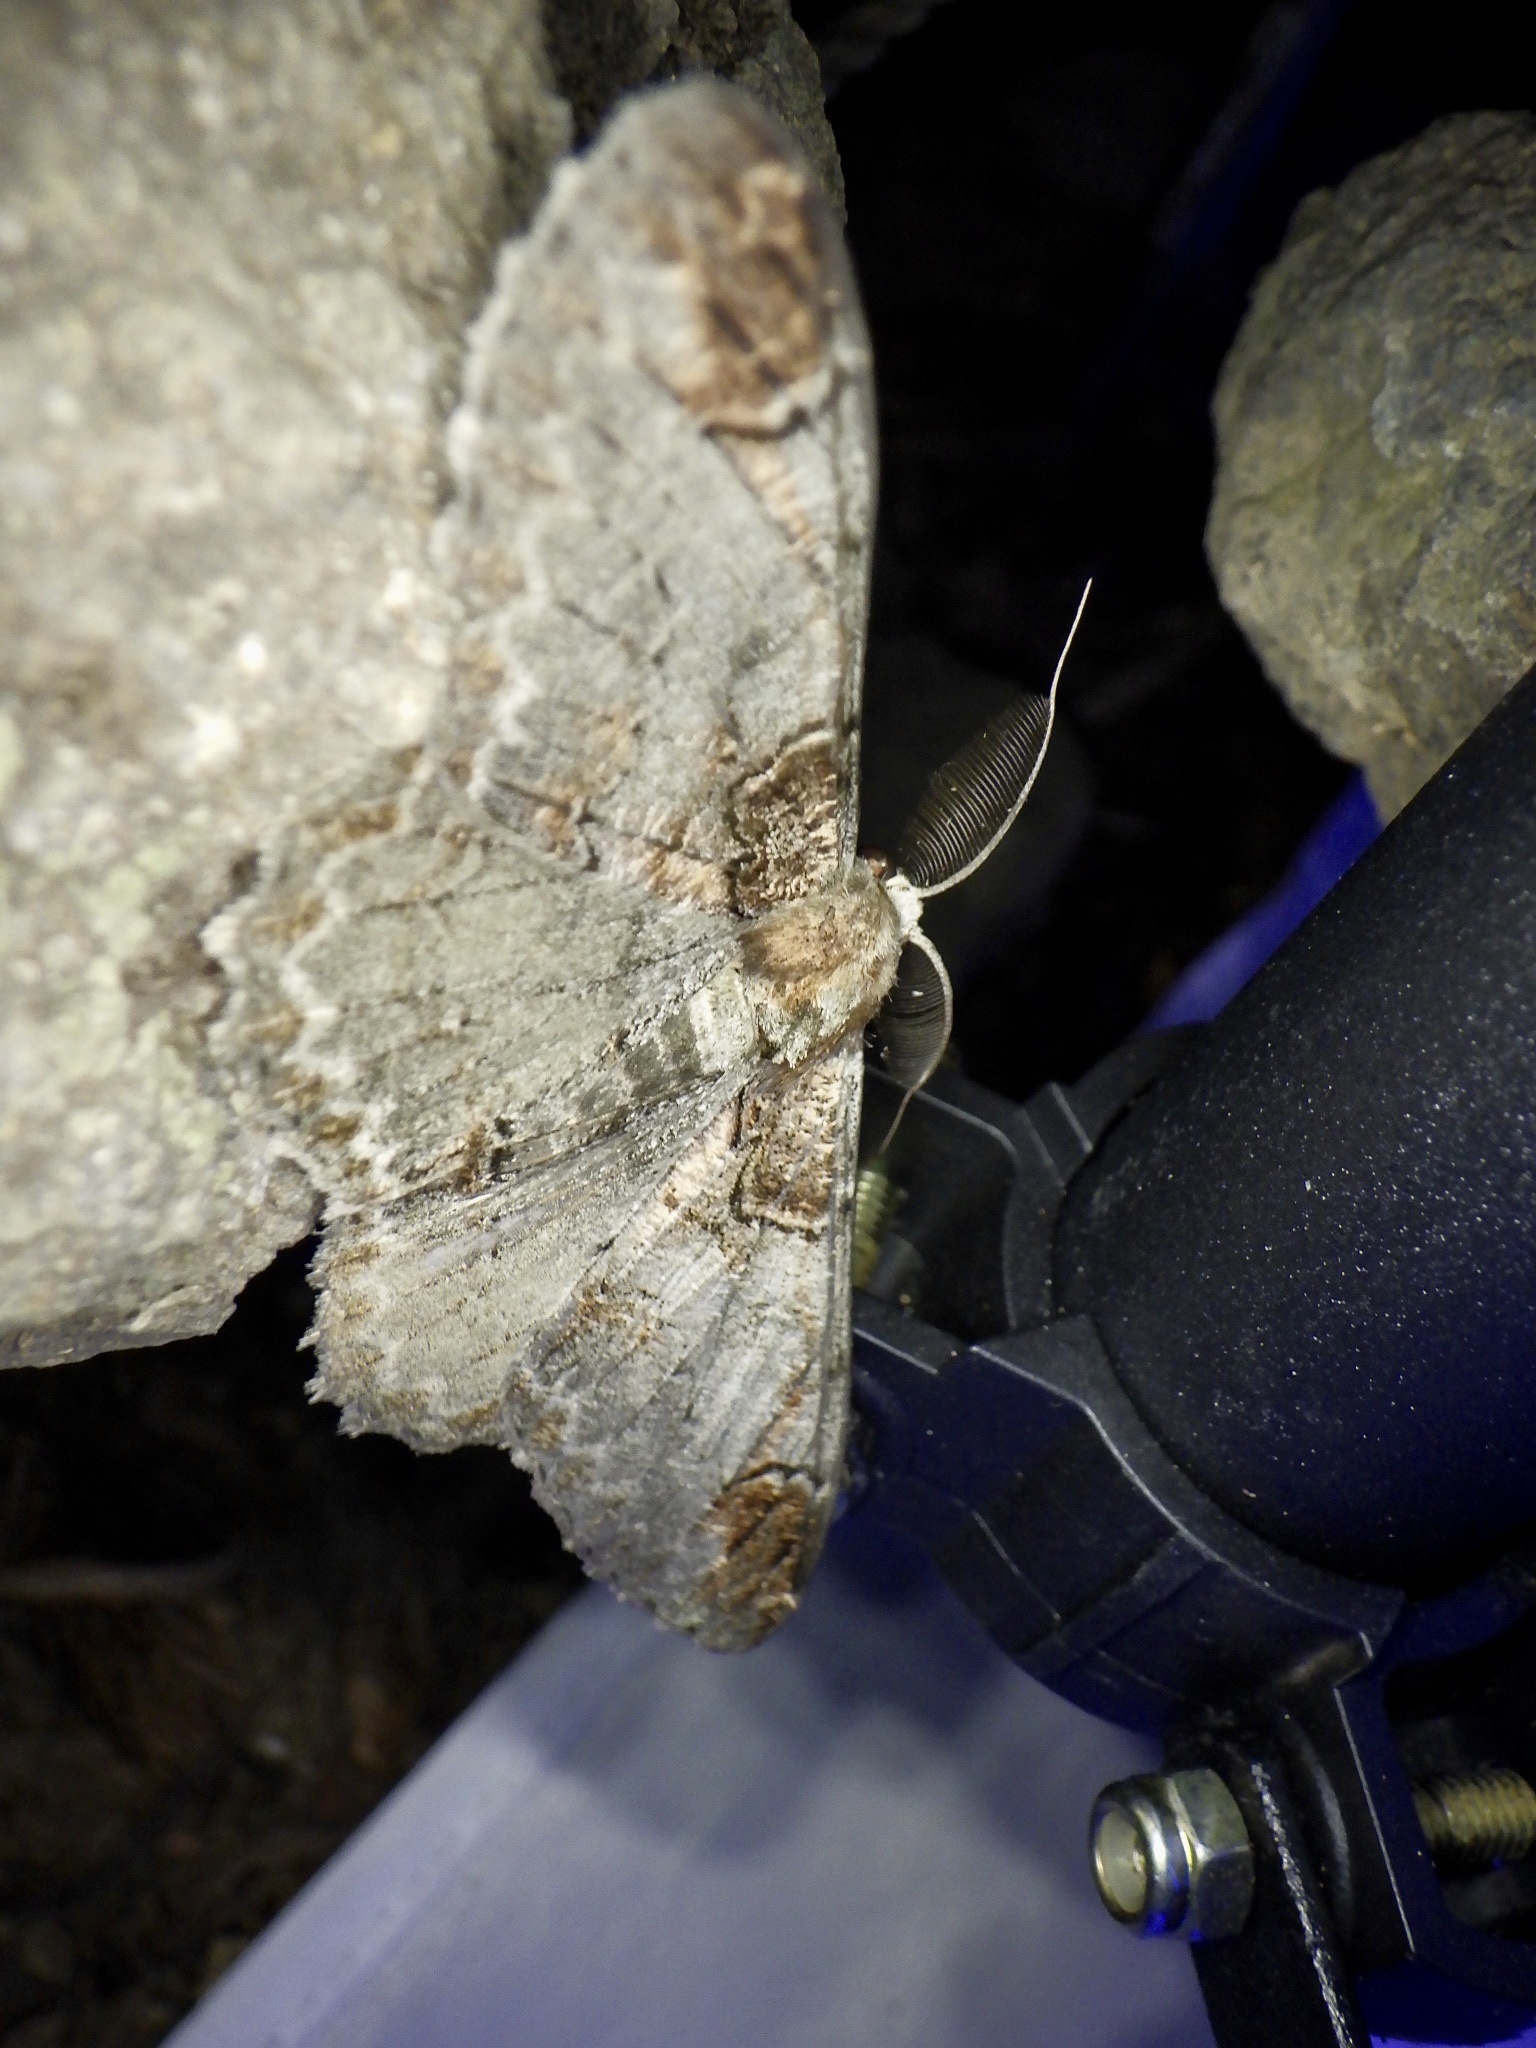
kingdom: Animalia
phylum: Arthropoda
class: Insecta
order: Lepidoptera
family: Geometridae
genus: Amraica
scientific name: Amraica superans
